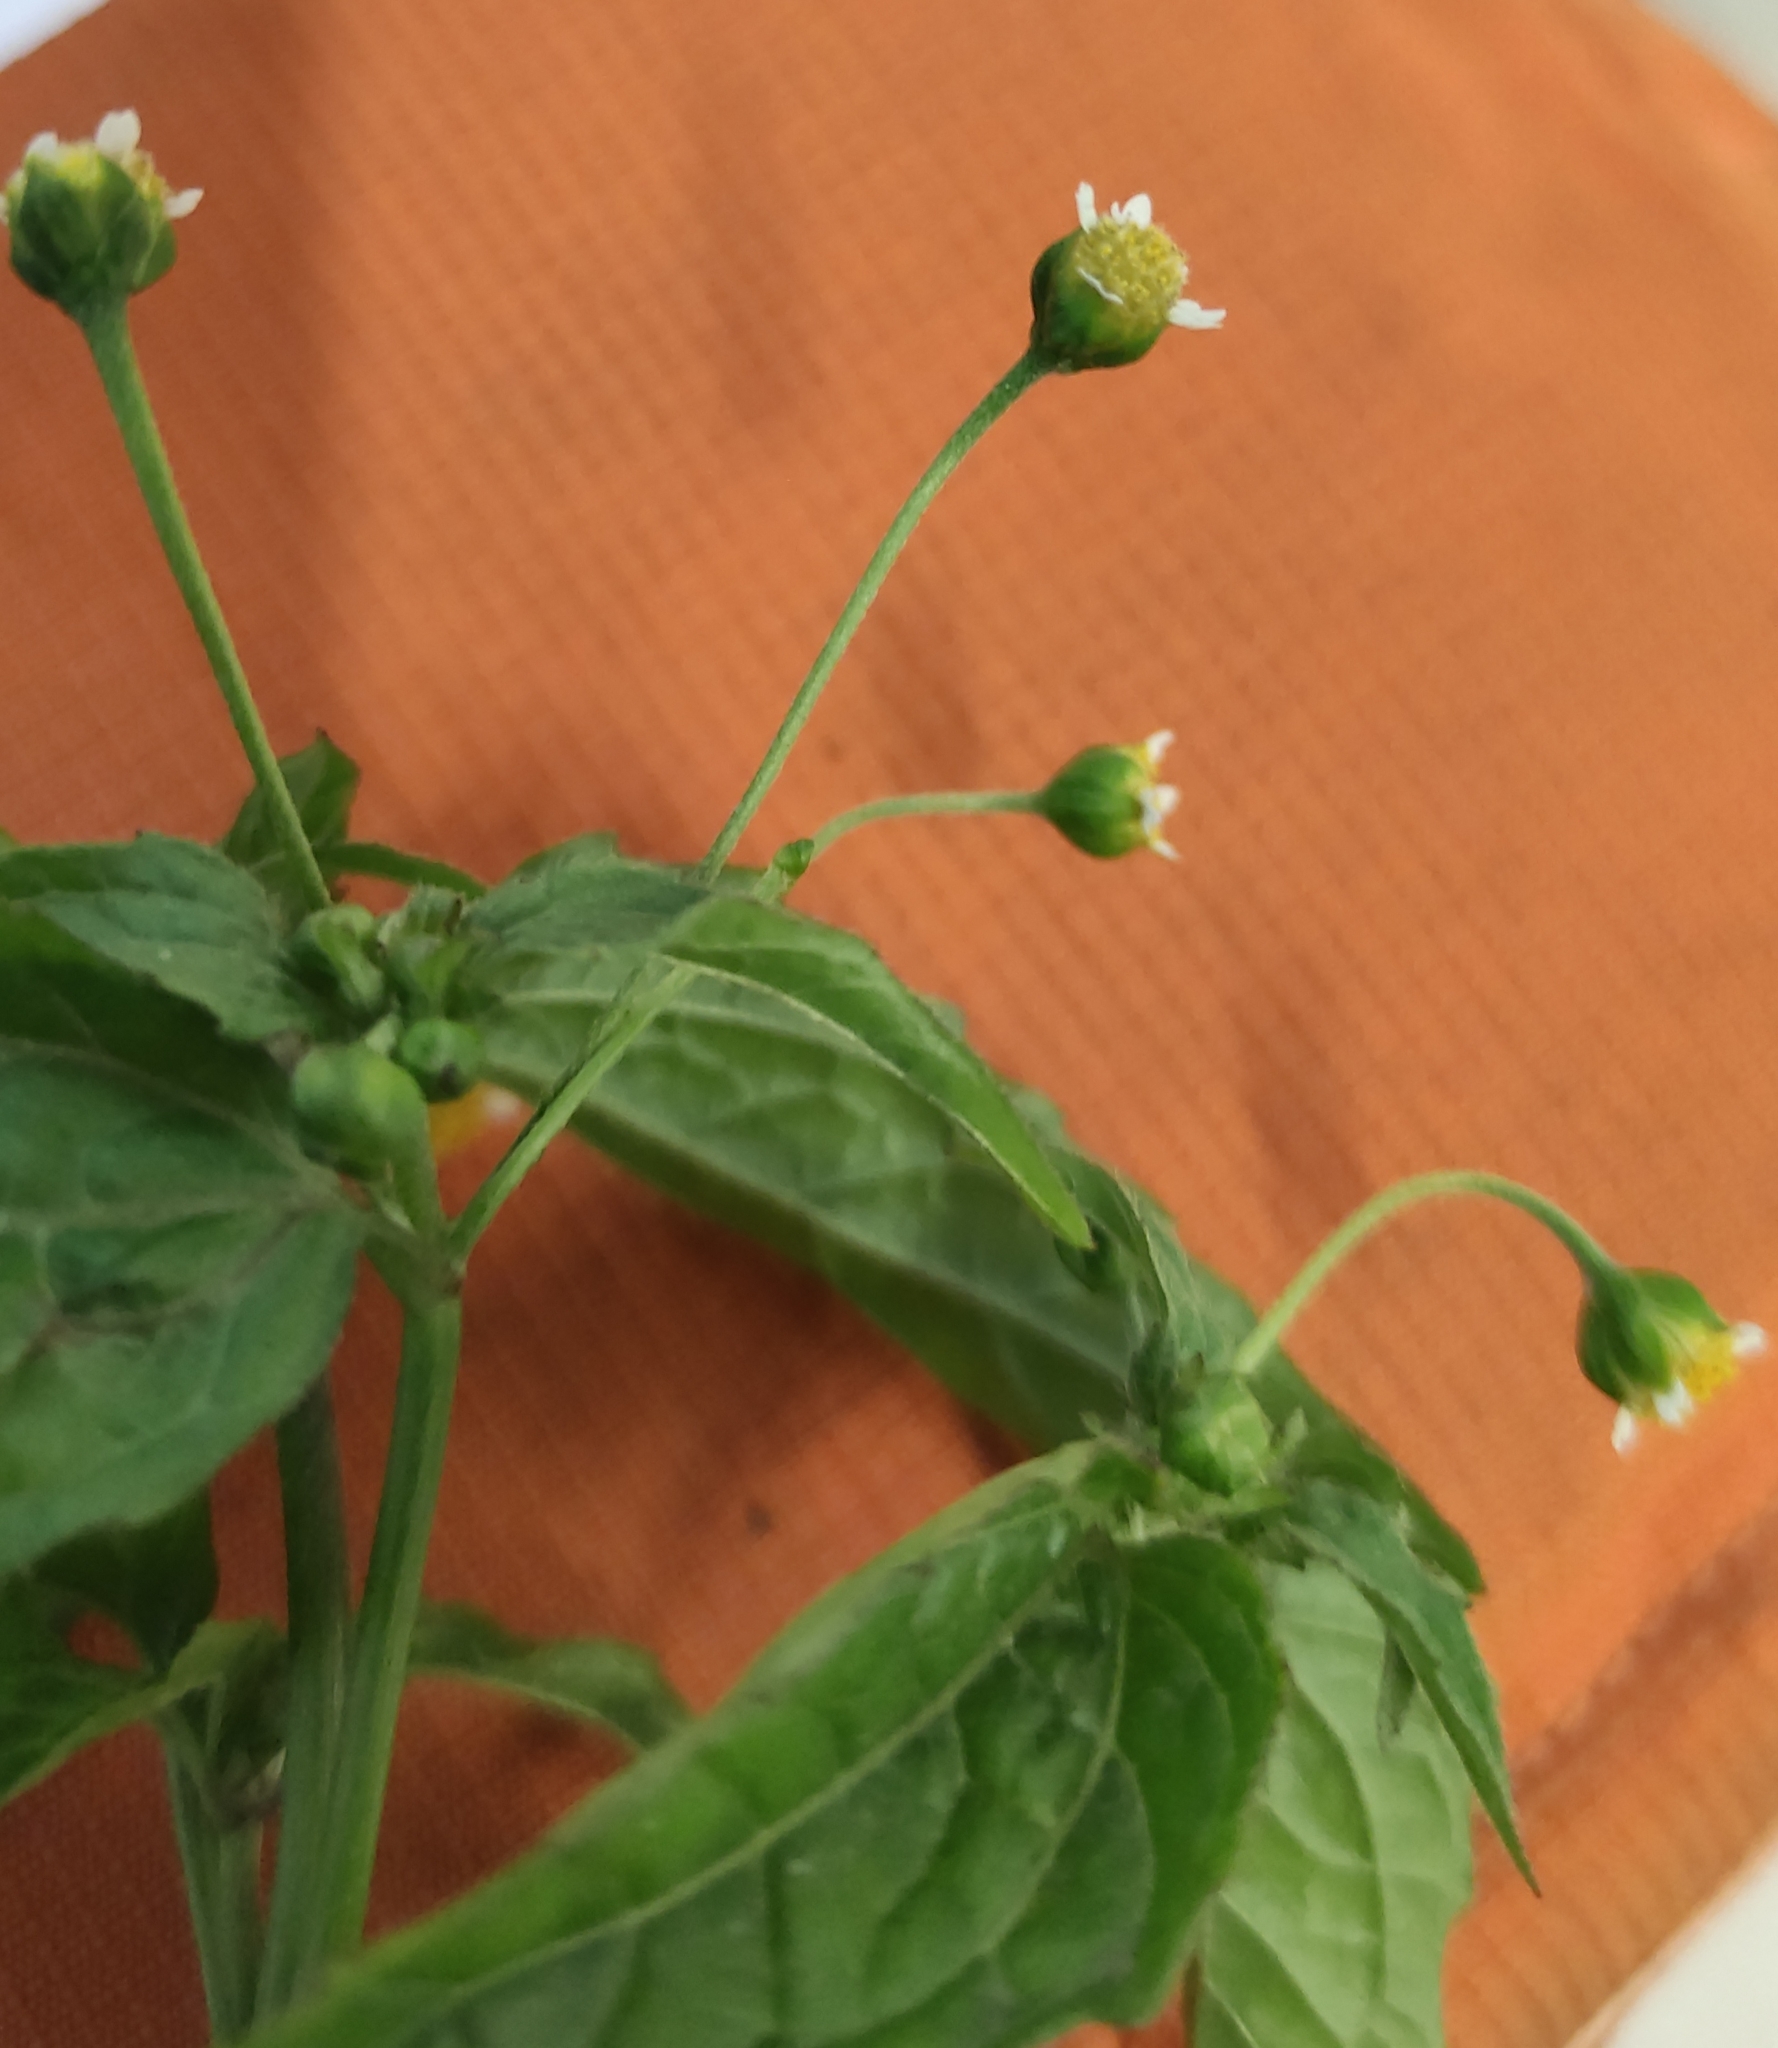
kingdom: Plantae
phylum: Tracheophyta
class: Magnoliopsida
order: Asterales
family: Asteraceae
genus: Galinsoga
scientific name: Galinsoga parviflora
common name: Gallant soldier
